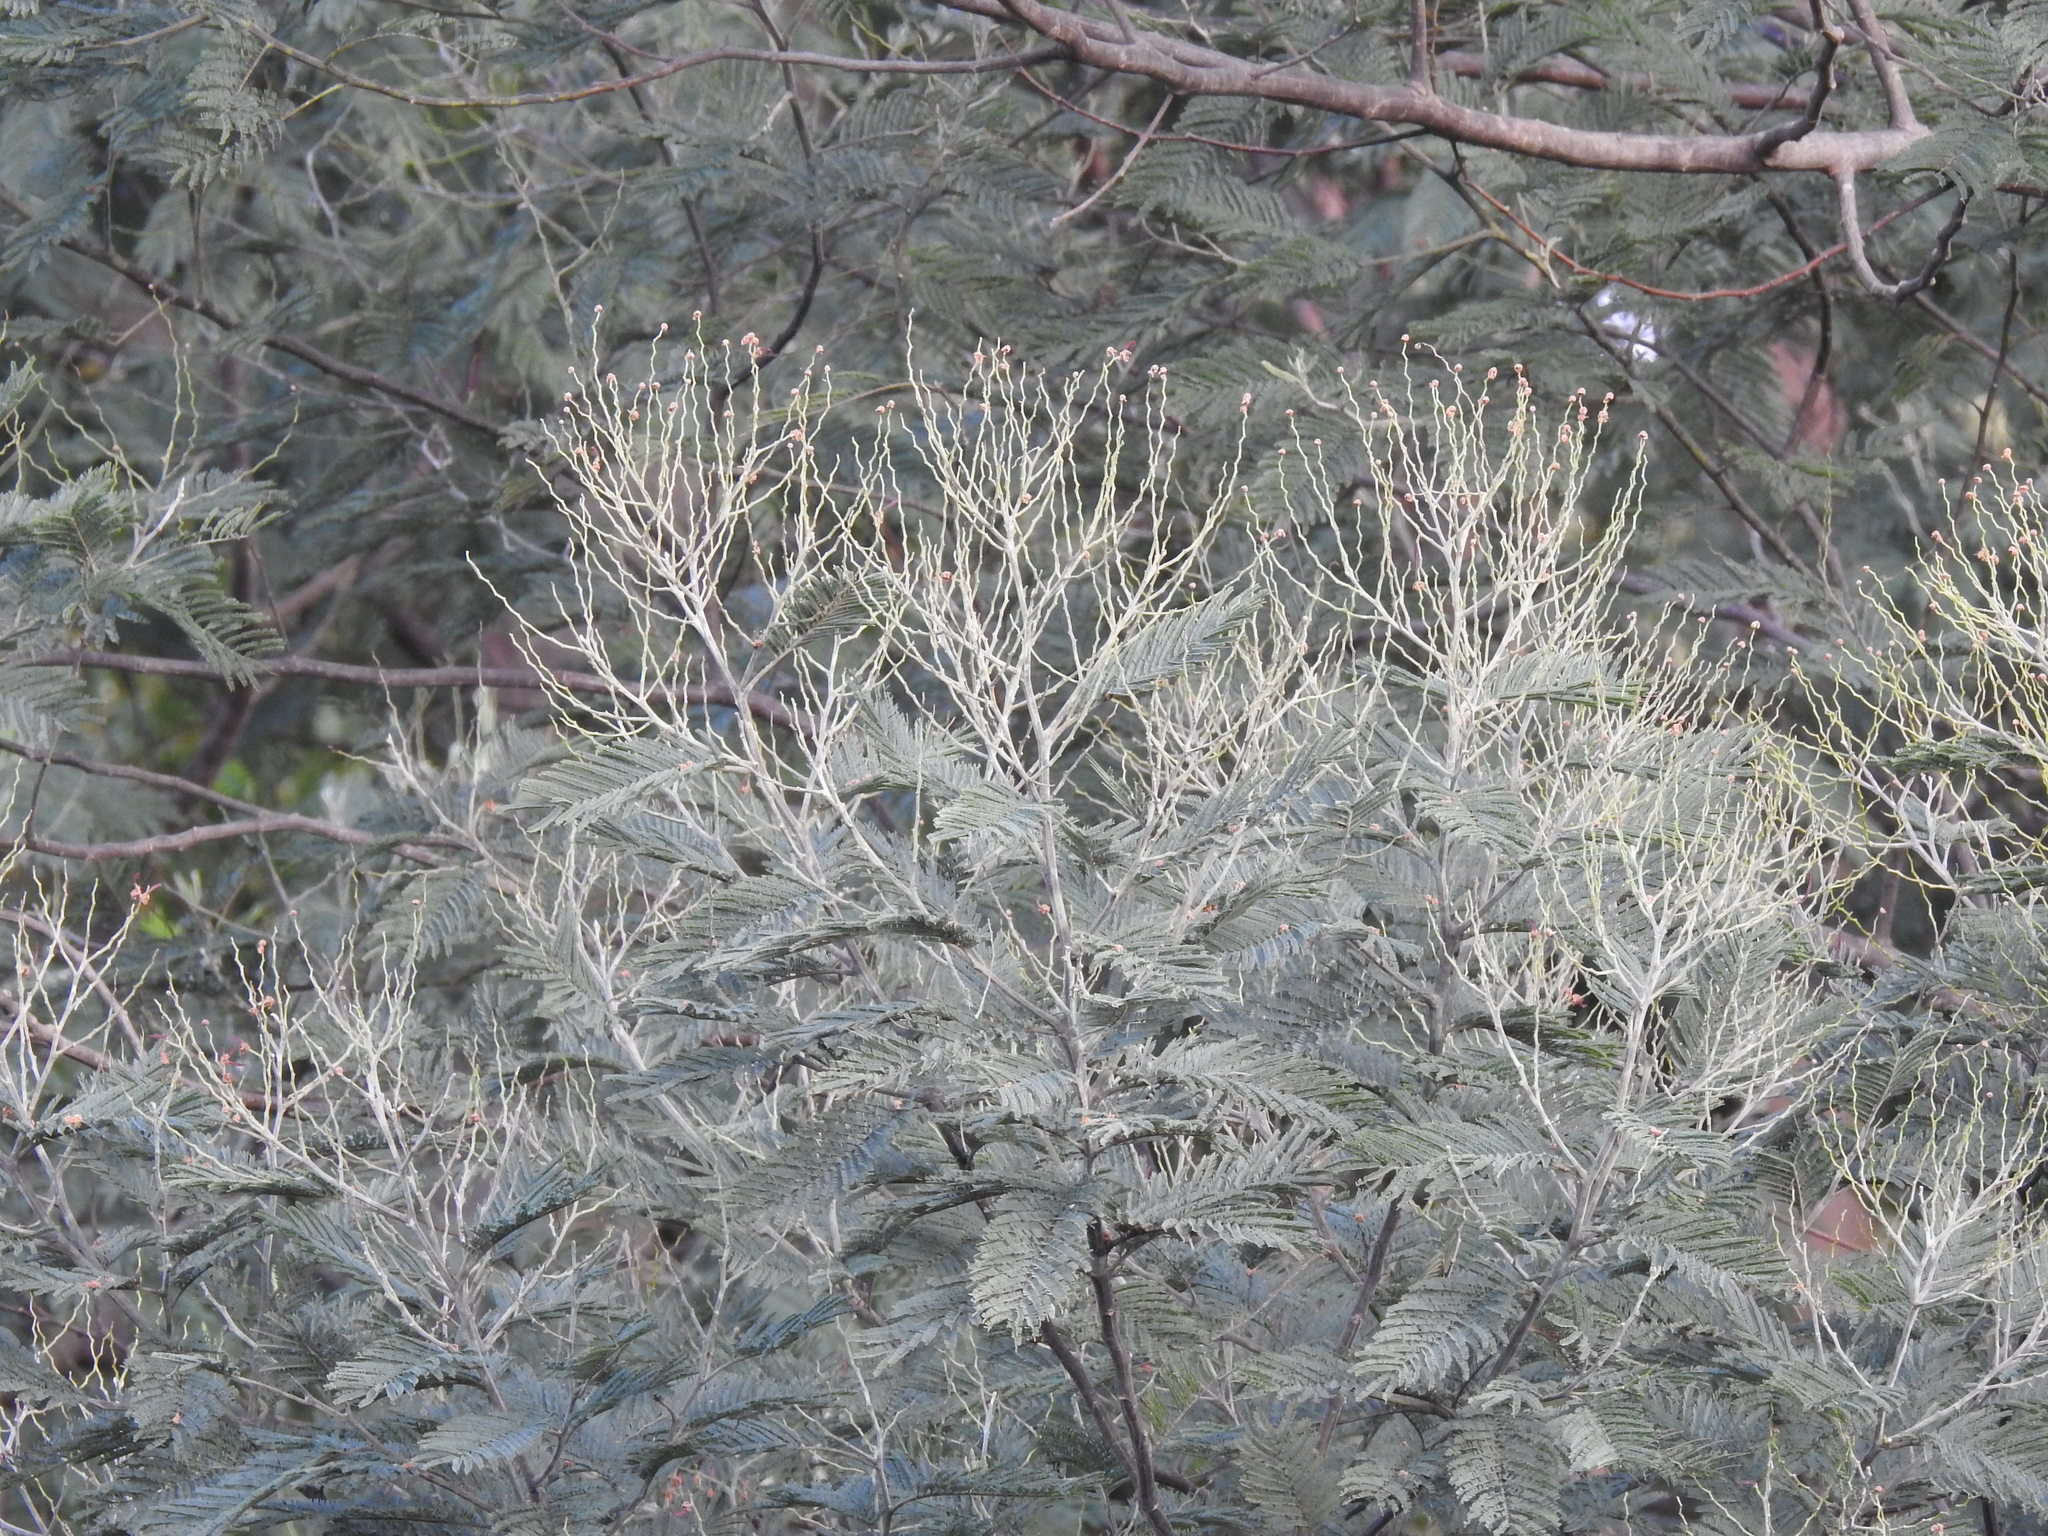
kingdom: Plantae
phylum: Tracheophyta
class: Magnoliopsida
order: Fabales
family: Fabaceae
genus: Acacia
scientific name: Acacia dealbata
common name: Silver wattle
